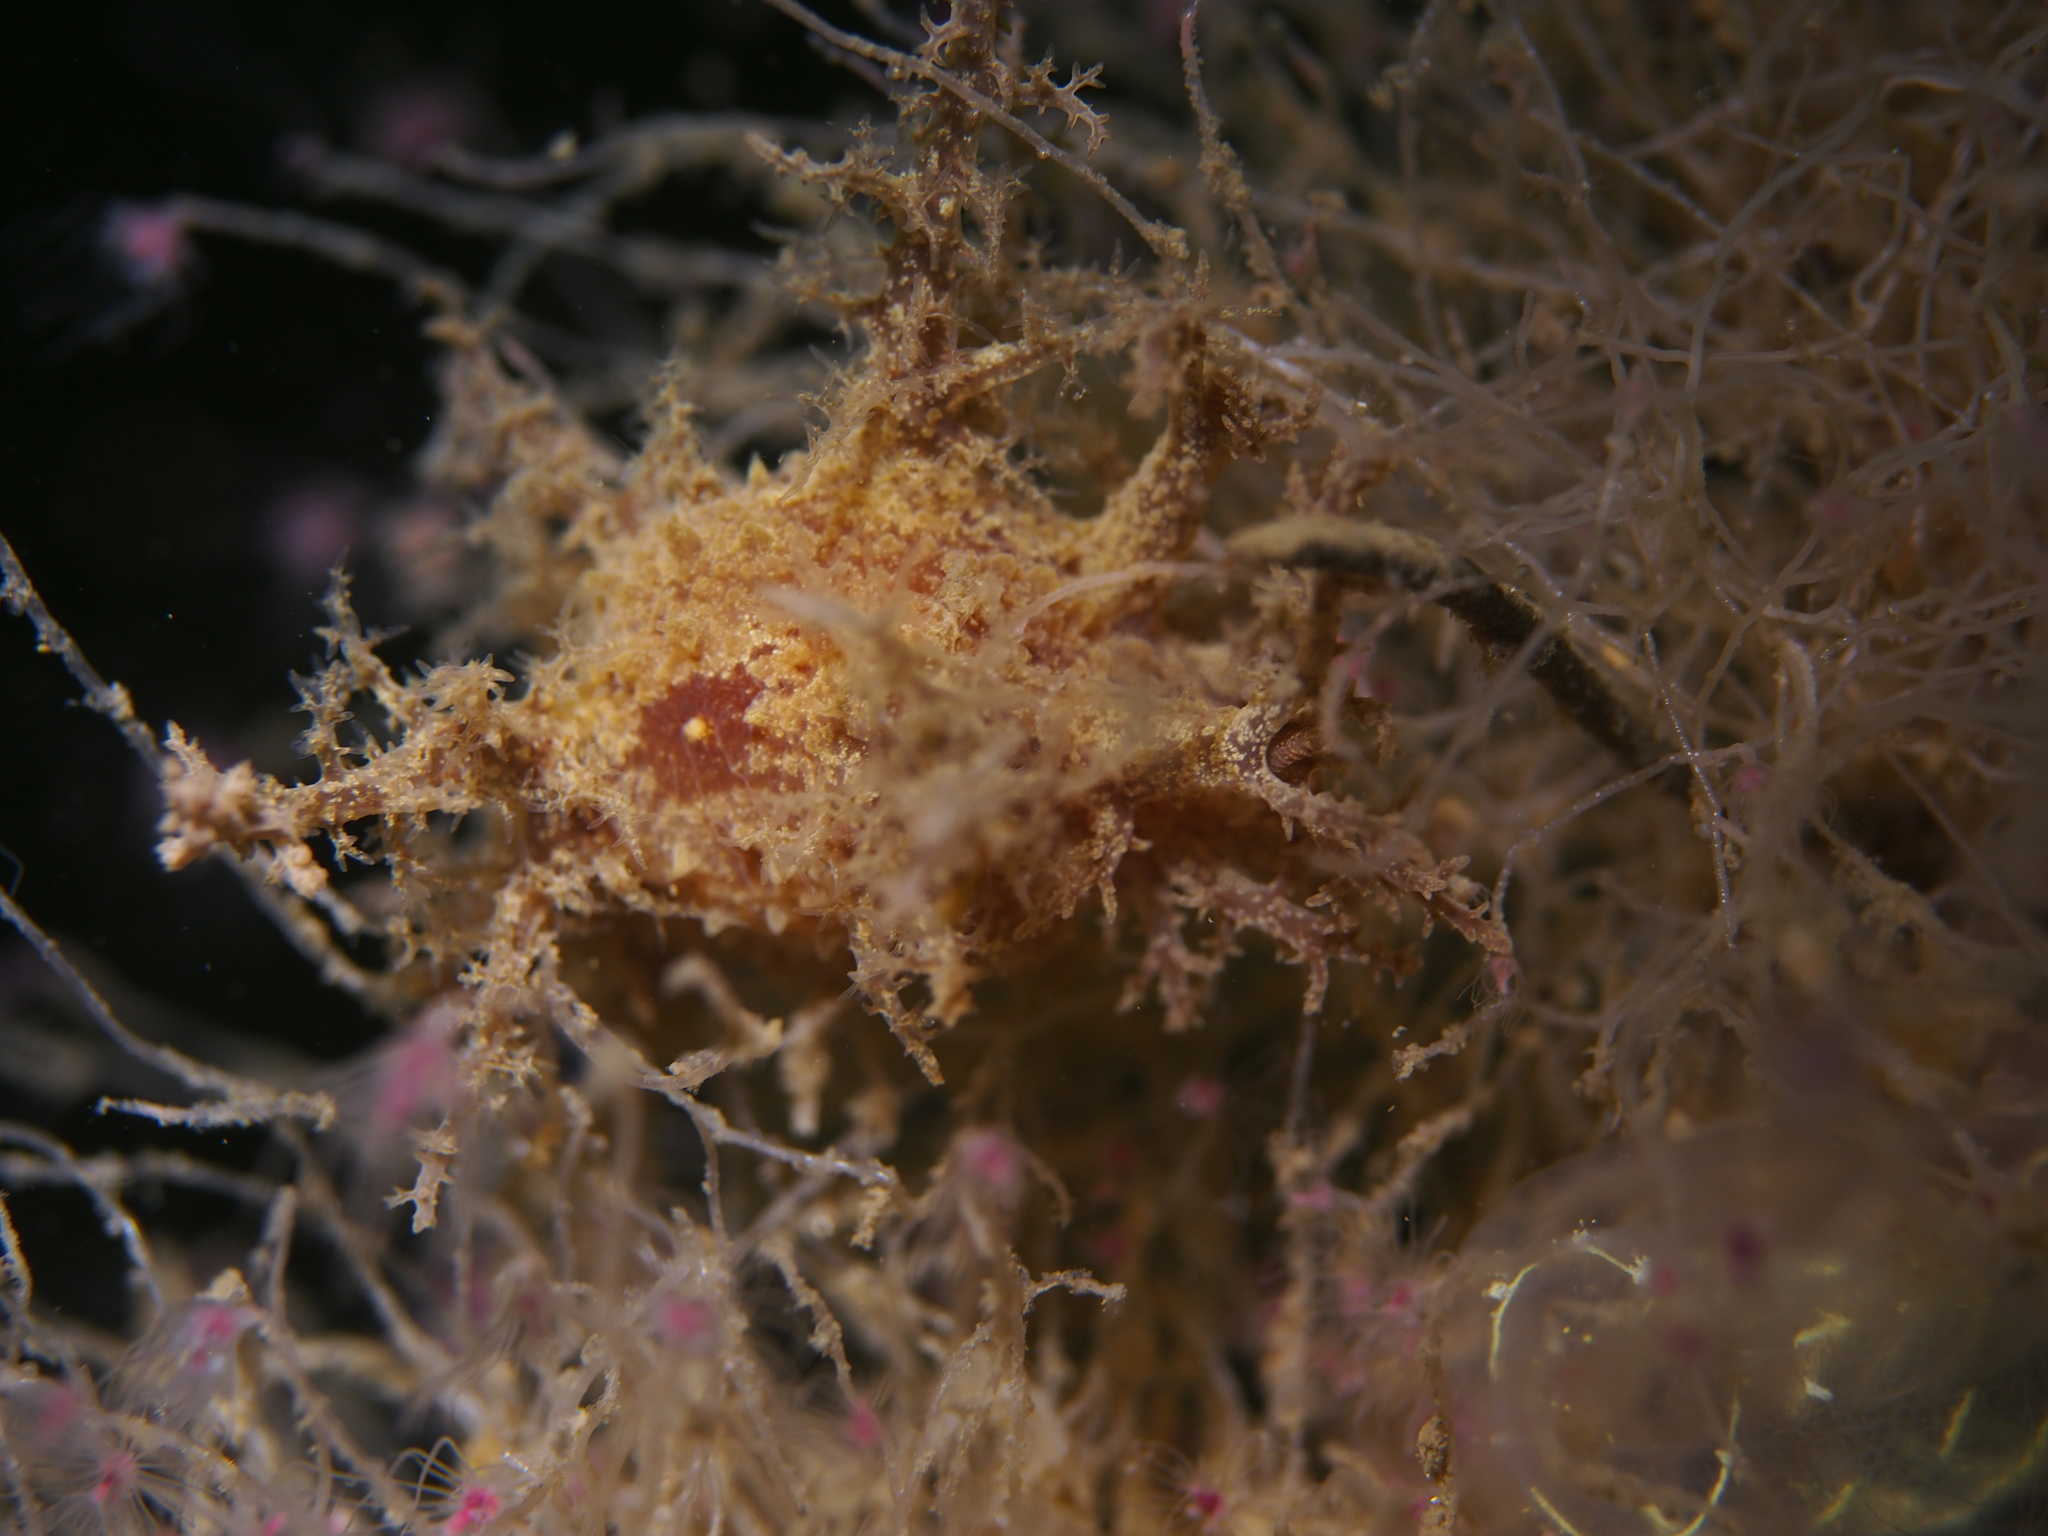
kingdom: Animalia
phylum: Mollusca
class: Gastropoda
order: Nudibranchia
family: Dendronotidae
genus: Dendronotus
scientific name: Dendronotus frondosus
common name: Bushy-backed nudibranch
